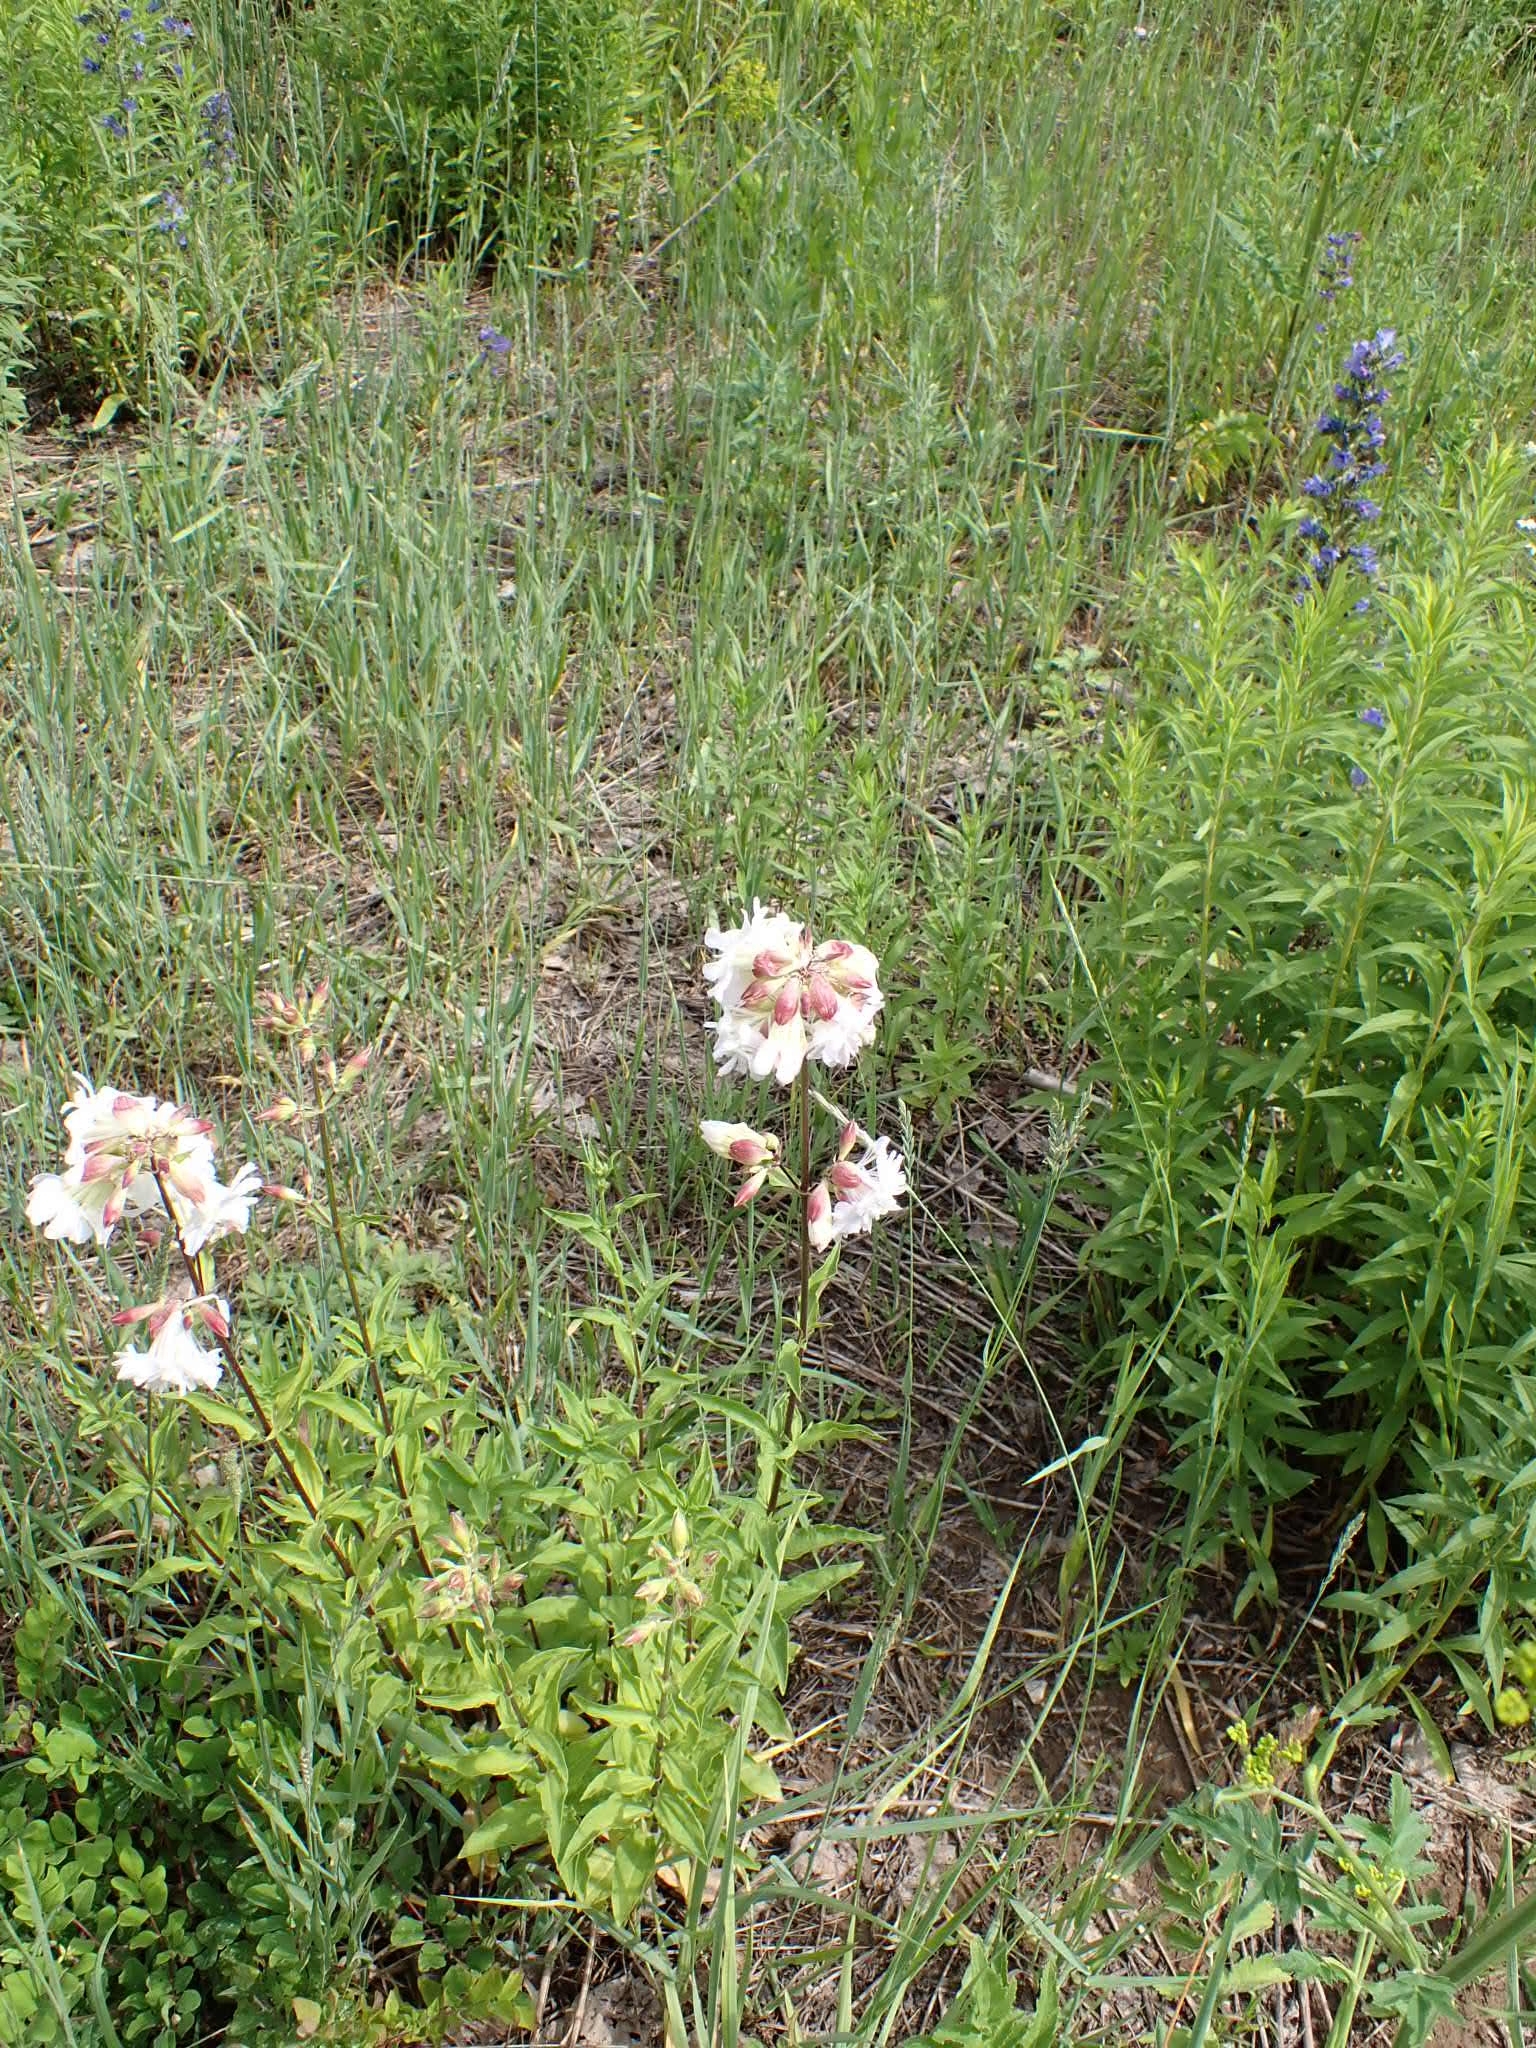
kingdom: Plantae
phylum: Tracheophyta
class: Magnoliopsida
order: Caryophyllales
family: Caryophyllaceae
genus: Saponaria
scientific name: Saponaria officinalis
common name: Soapwort
